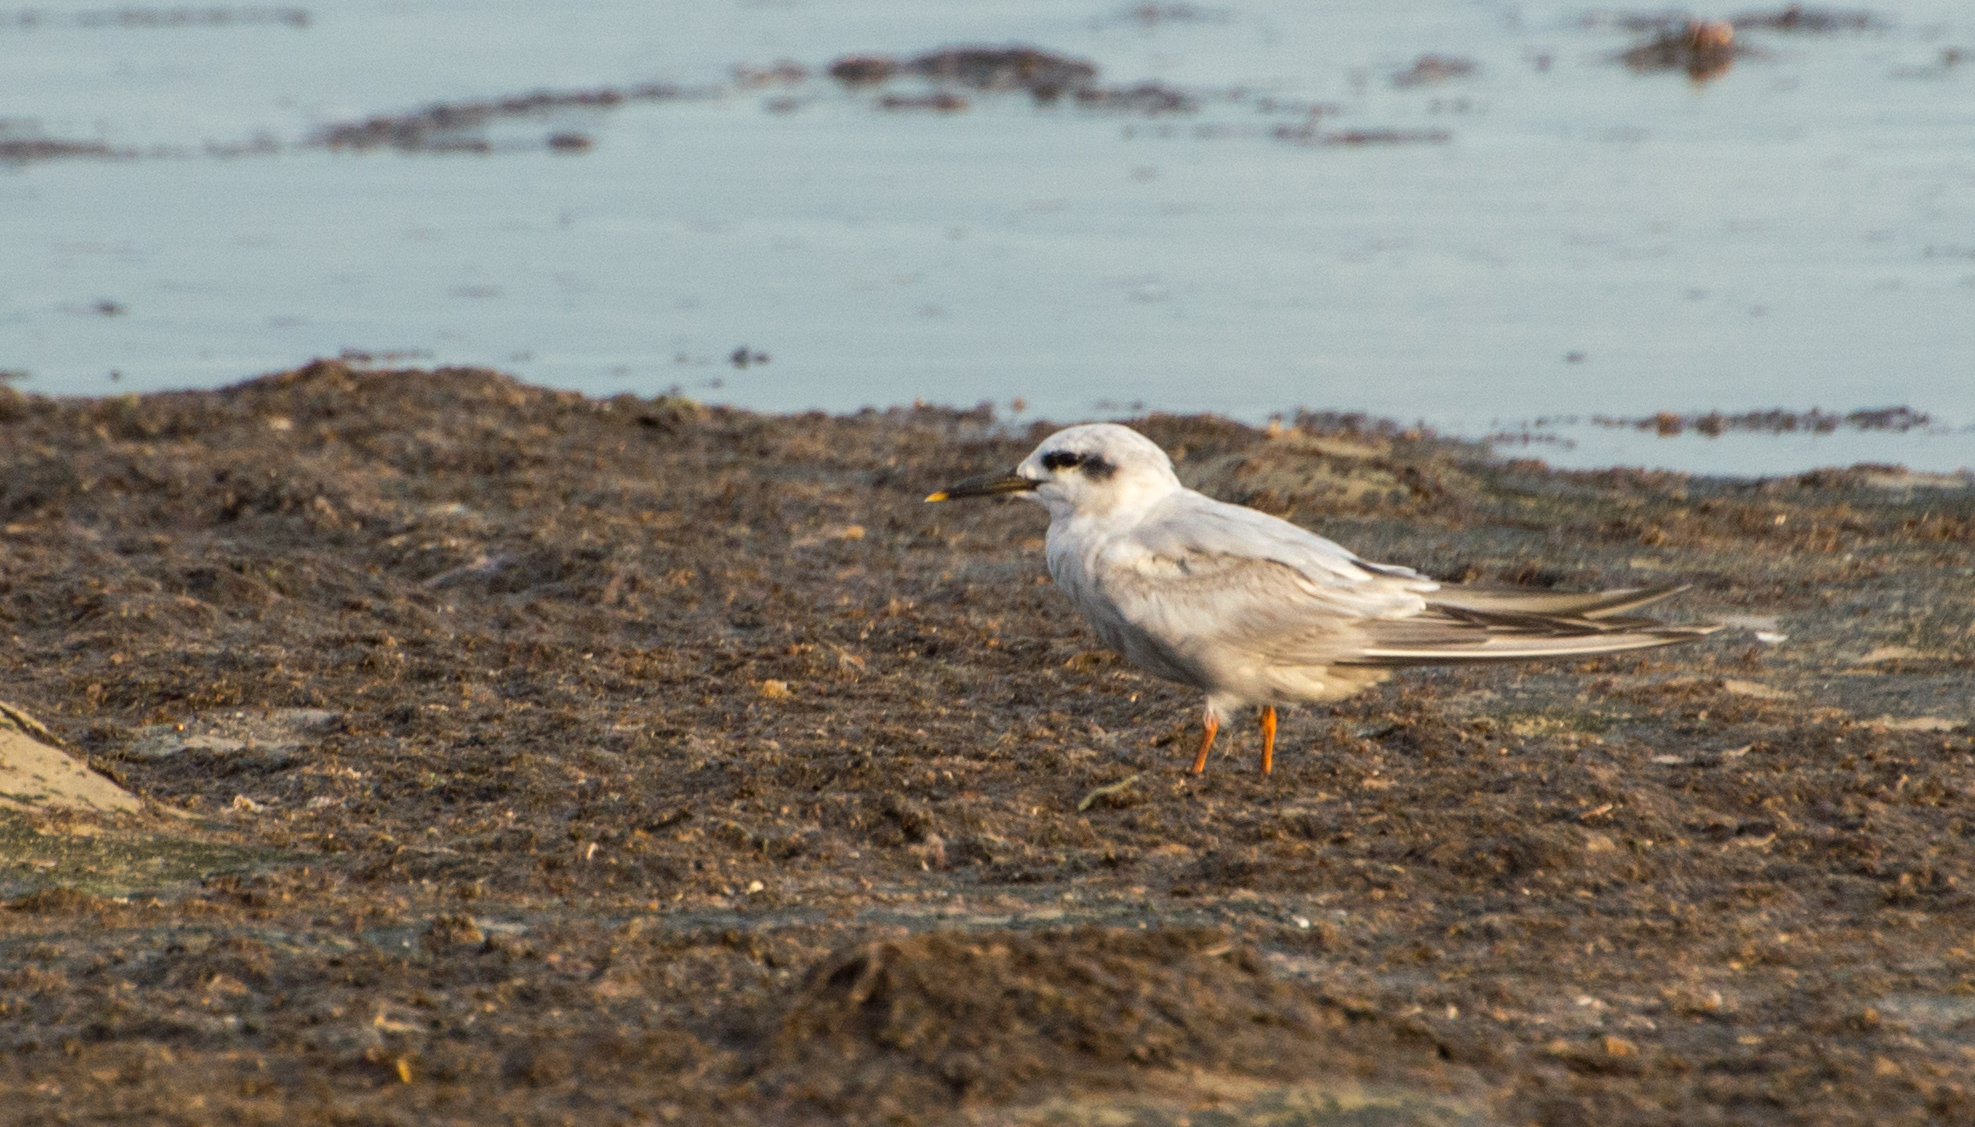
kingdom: Animalia
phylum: Chordata
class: Aves
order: Charadriiformes
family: Laridae
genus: Sterna
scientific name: Sterna trudeaui
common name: Snowy-crowned tern
